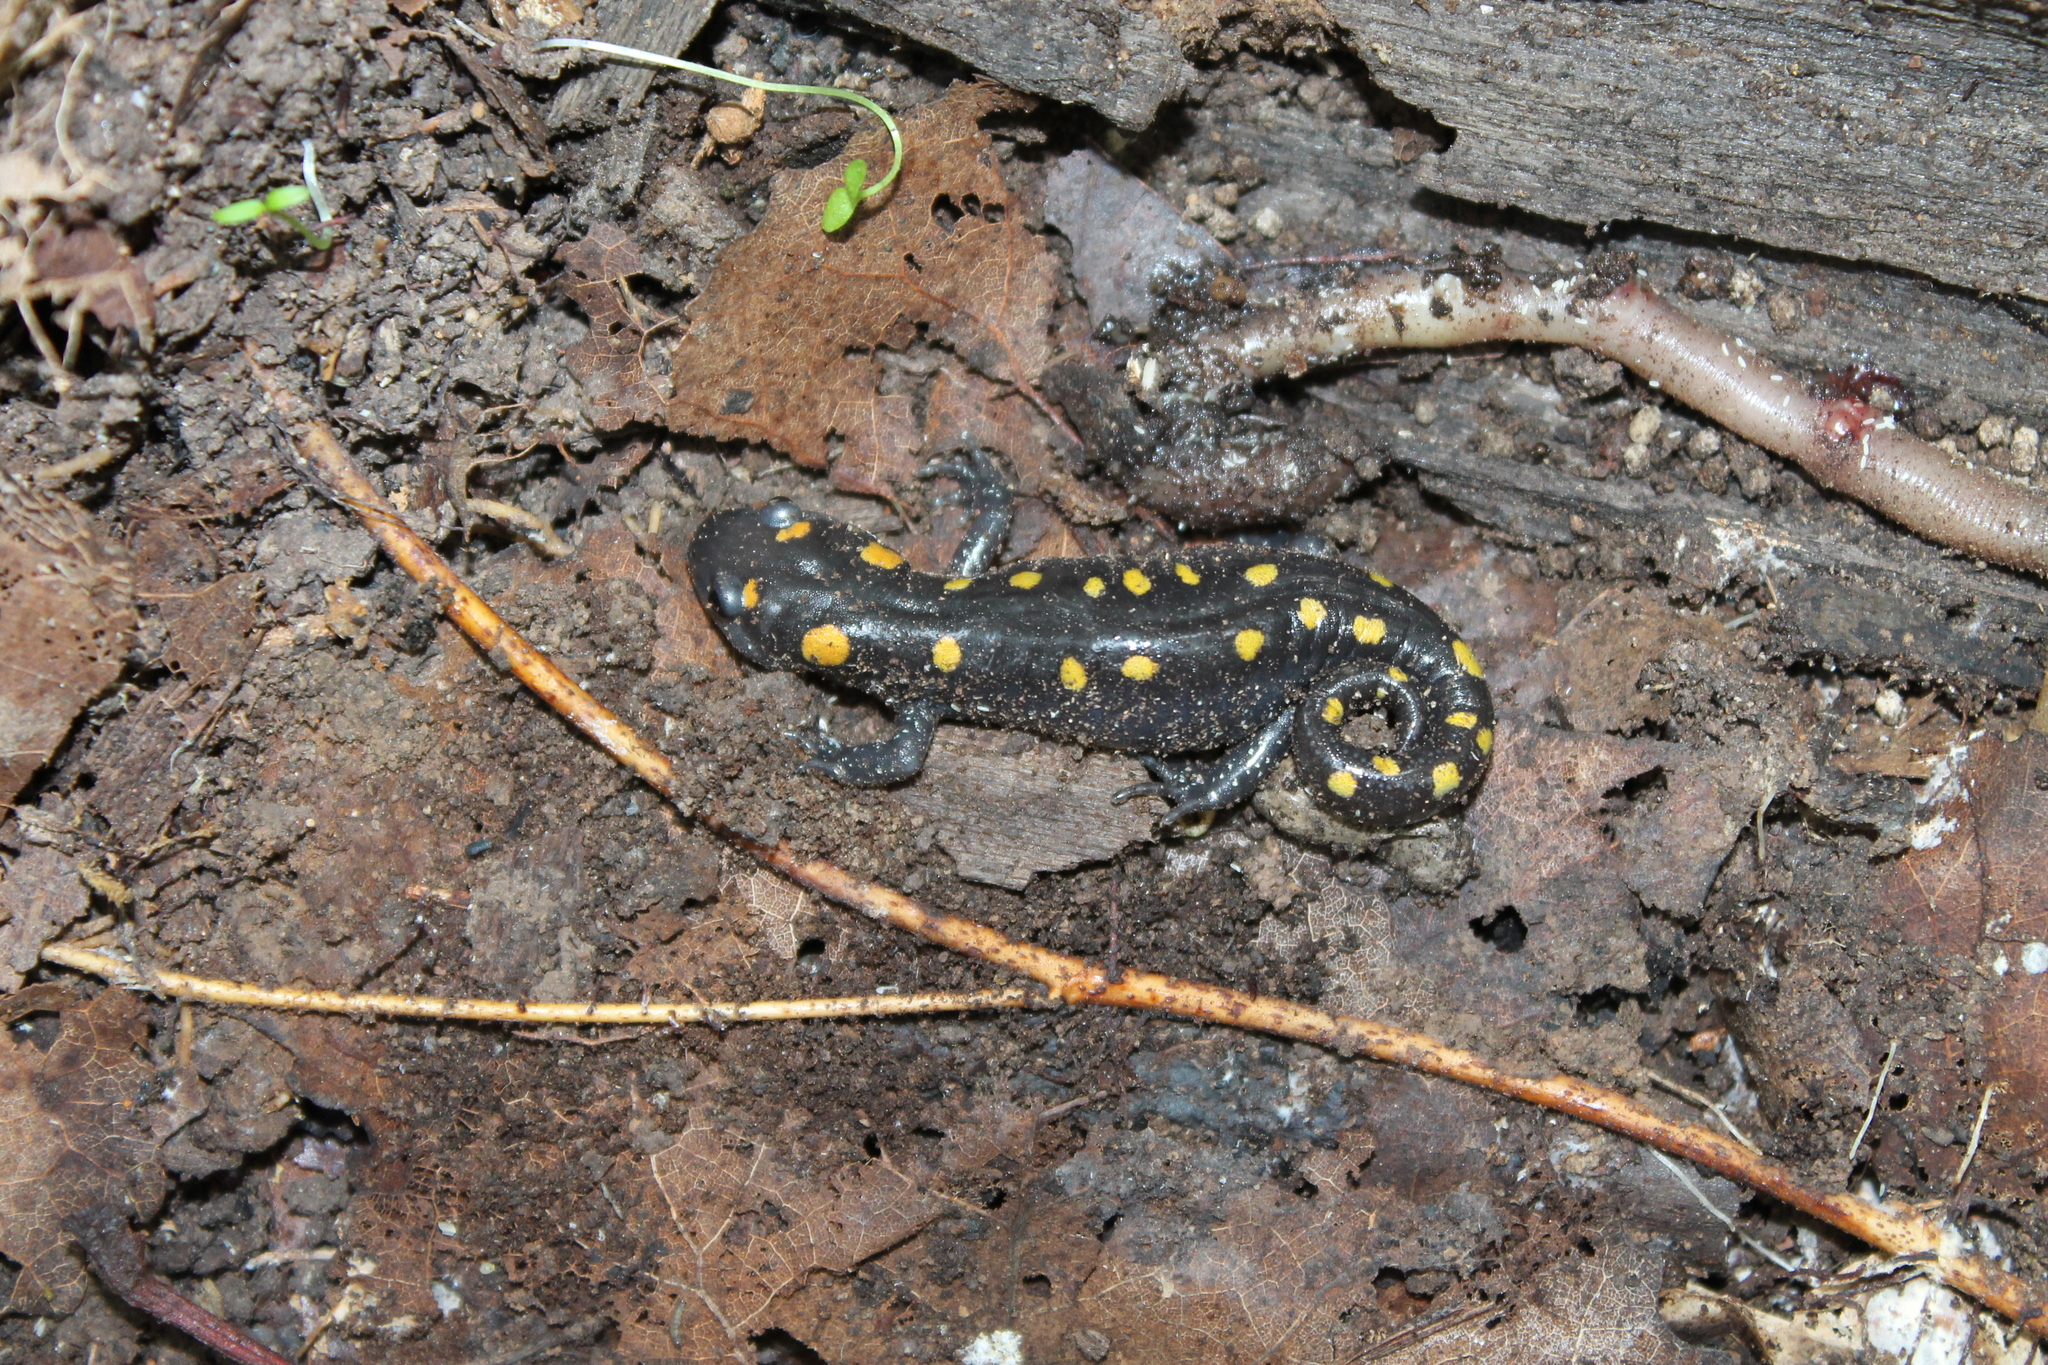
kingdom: Animalia
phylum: Chordata
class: Amphibia
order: Caudata
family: Ambystomatidae
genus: Ambystoma
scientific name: Ambystoma maculatum
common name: Spotted salamander
